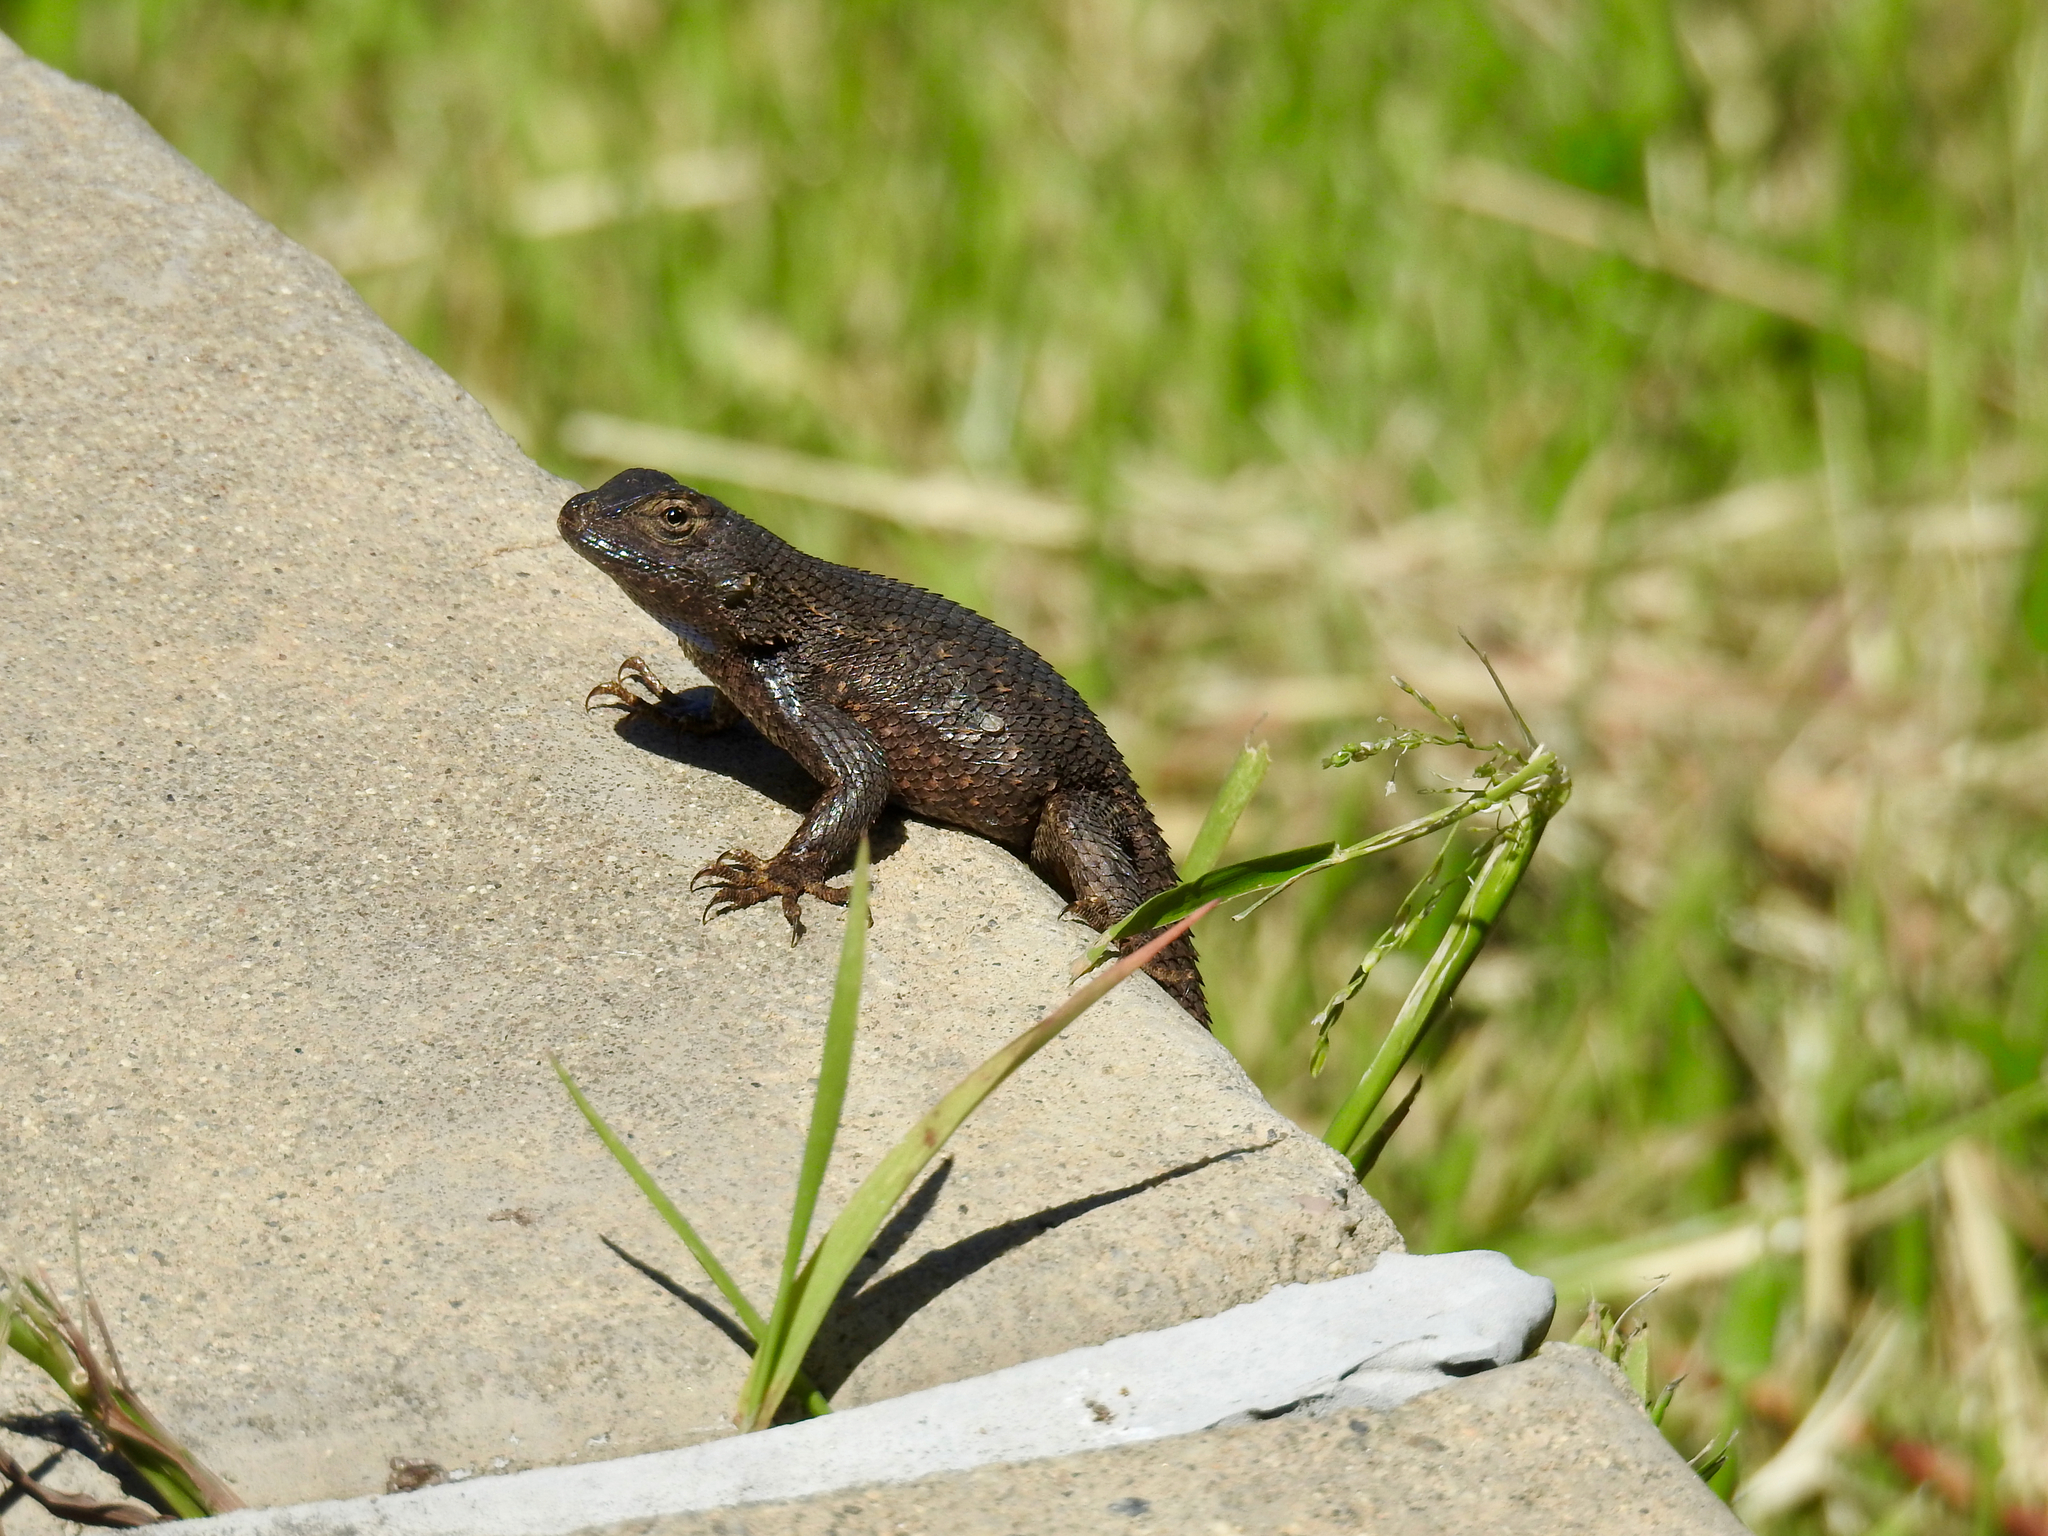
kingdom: Animalia
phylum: Chordata
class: Squamata
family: Phrynosomatidae
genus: Sceloporus
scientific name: Sceloporus occidentalis
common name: Western fence lizard
